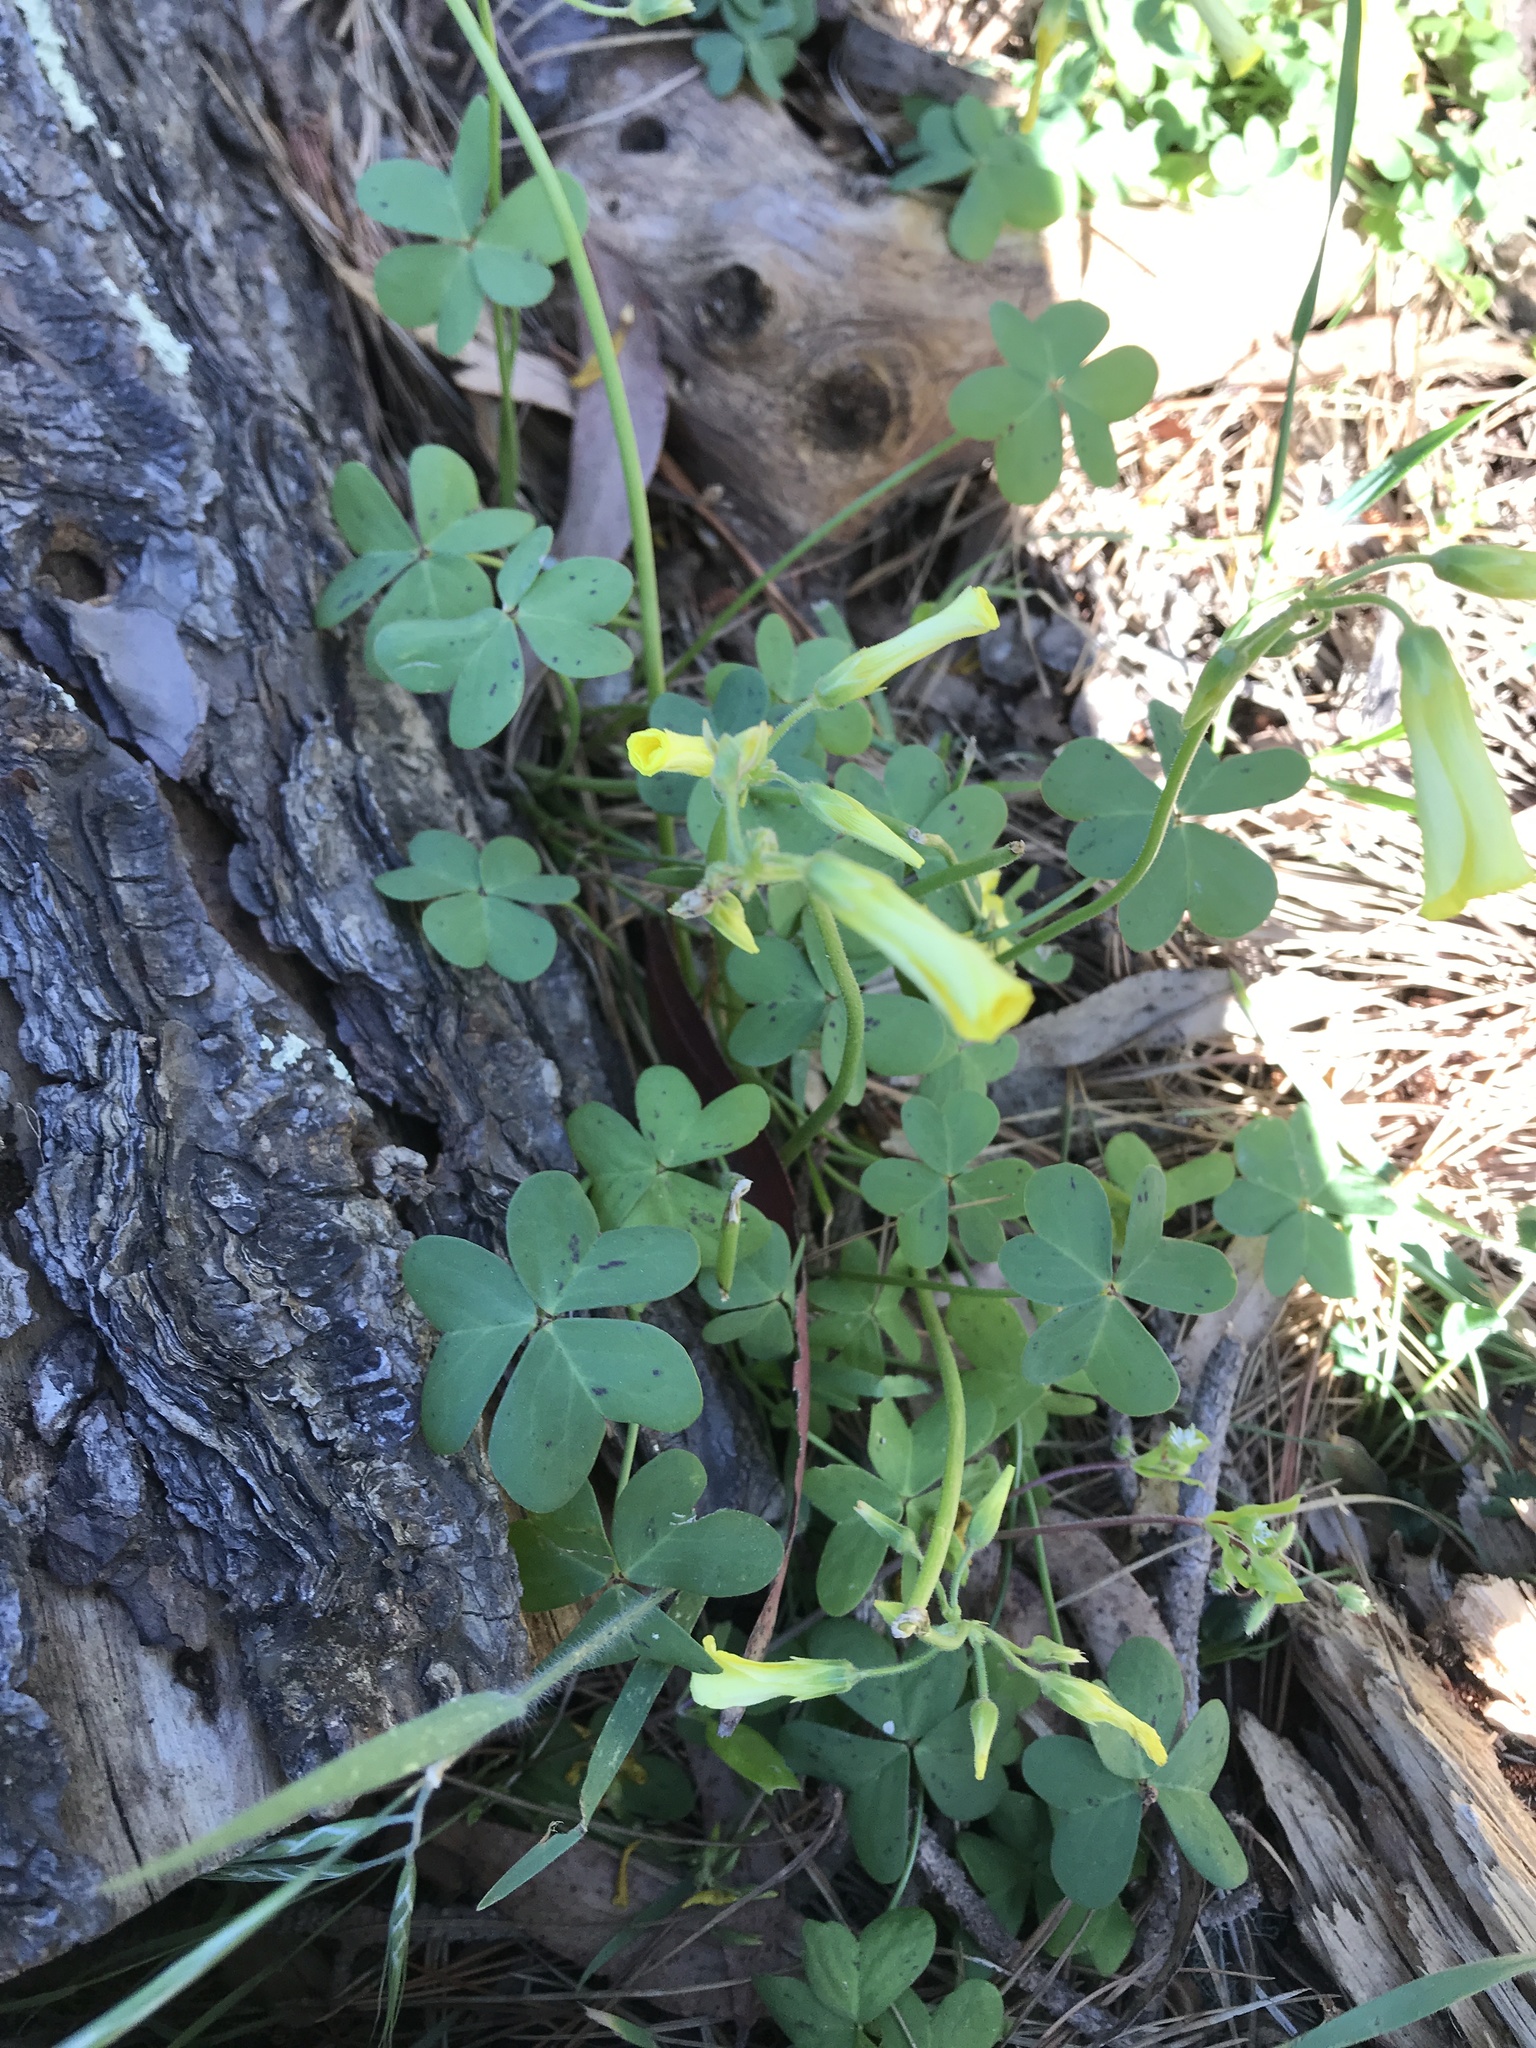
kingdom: Plantae
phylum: Tracheophyta
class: Magnoliopsida
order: Oxalidales
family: Oxalidaceae
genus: Oxalis
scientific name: Oxalis pes-caprae
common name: Bermuda-buttercup
